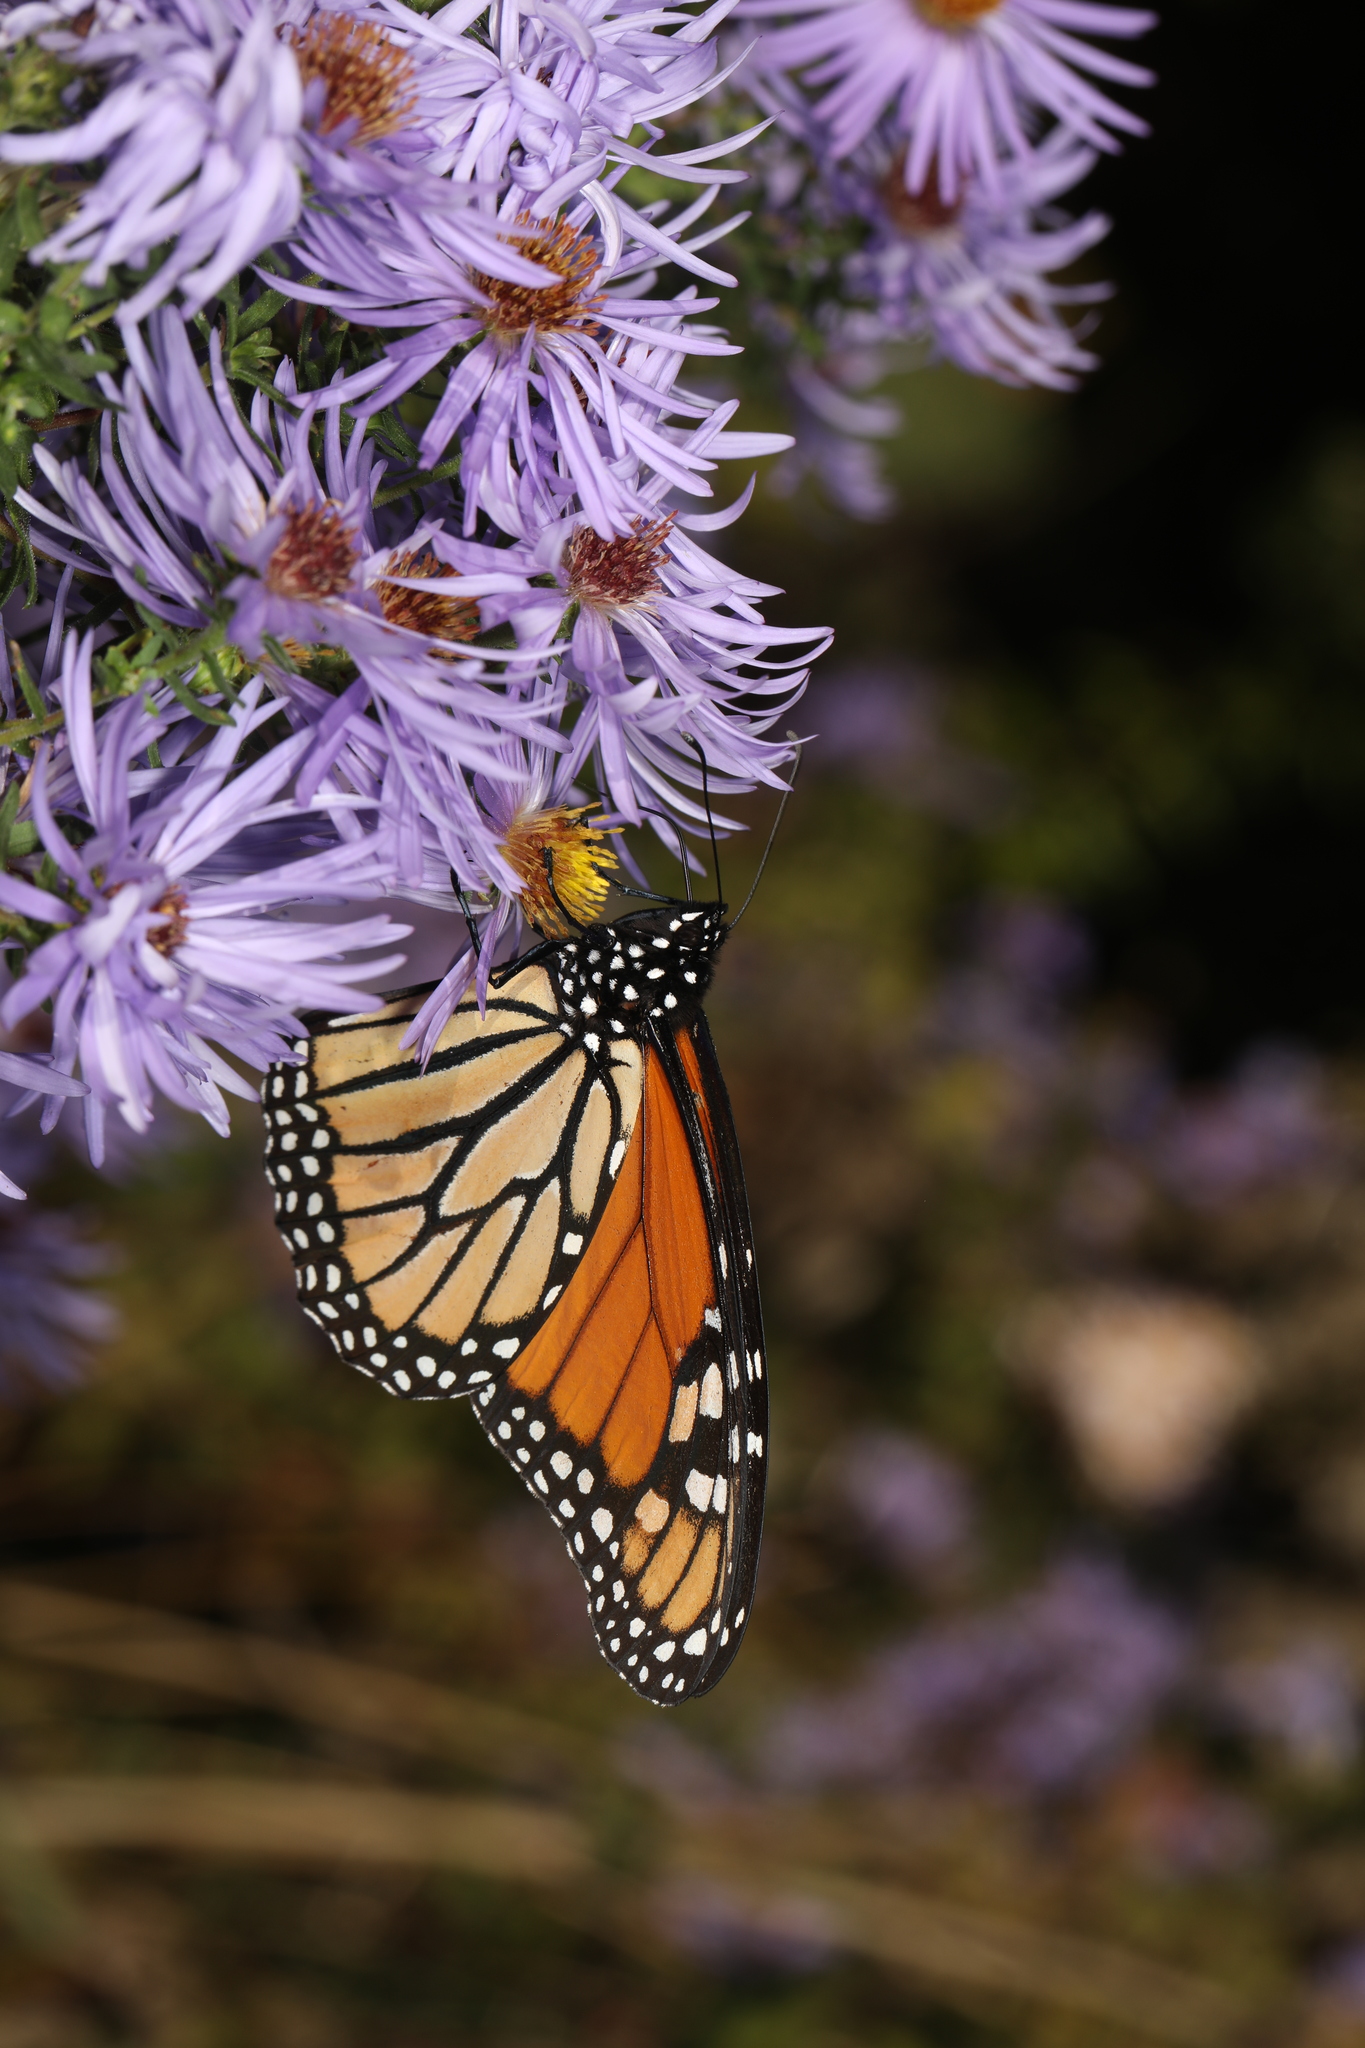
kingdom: Animalia
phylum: Arthropoda
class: Insecta
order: Lepidoptera
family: Nymphalidae
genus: Danaus
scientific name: Danaus plexippus
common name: Monarch
